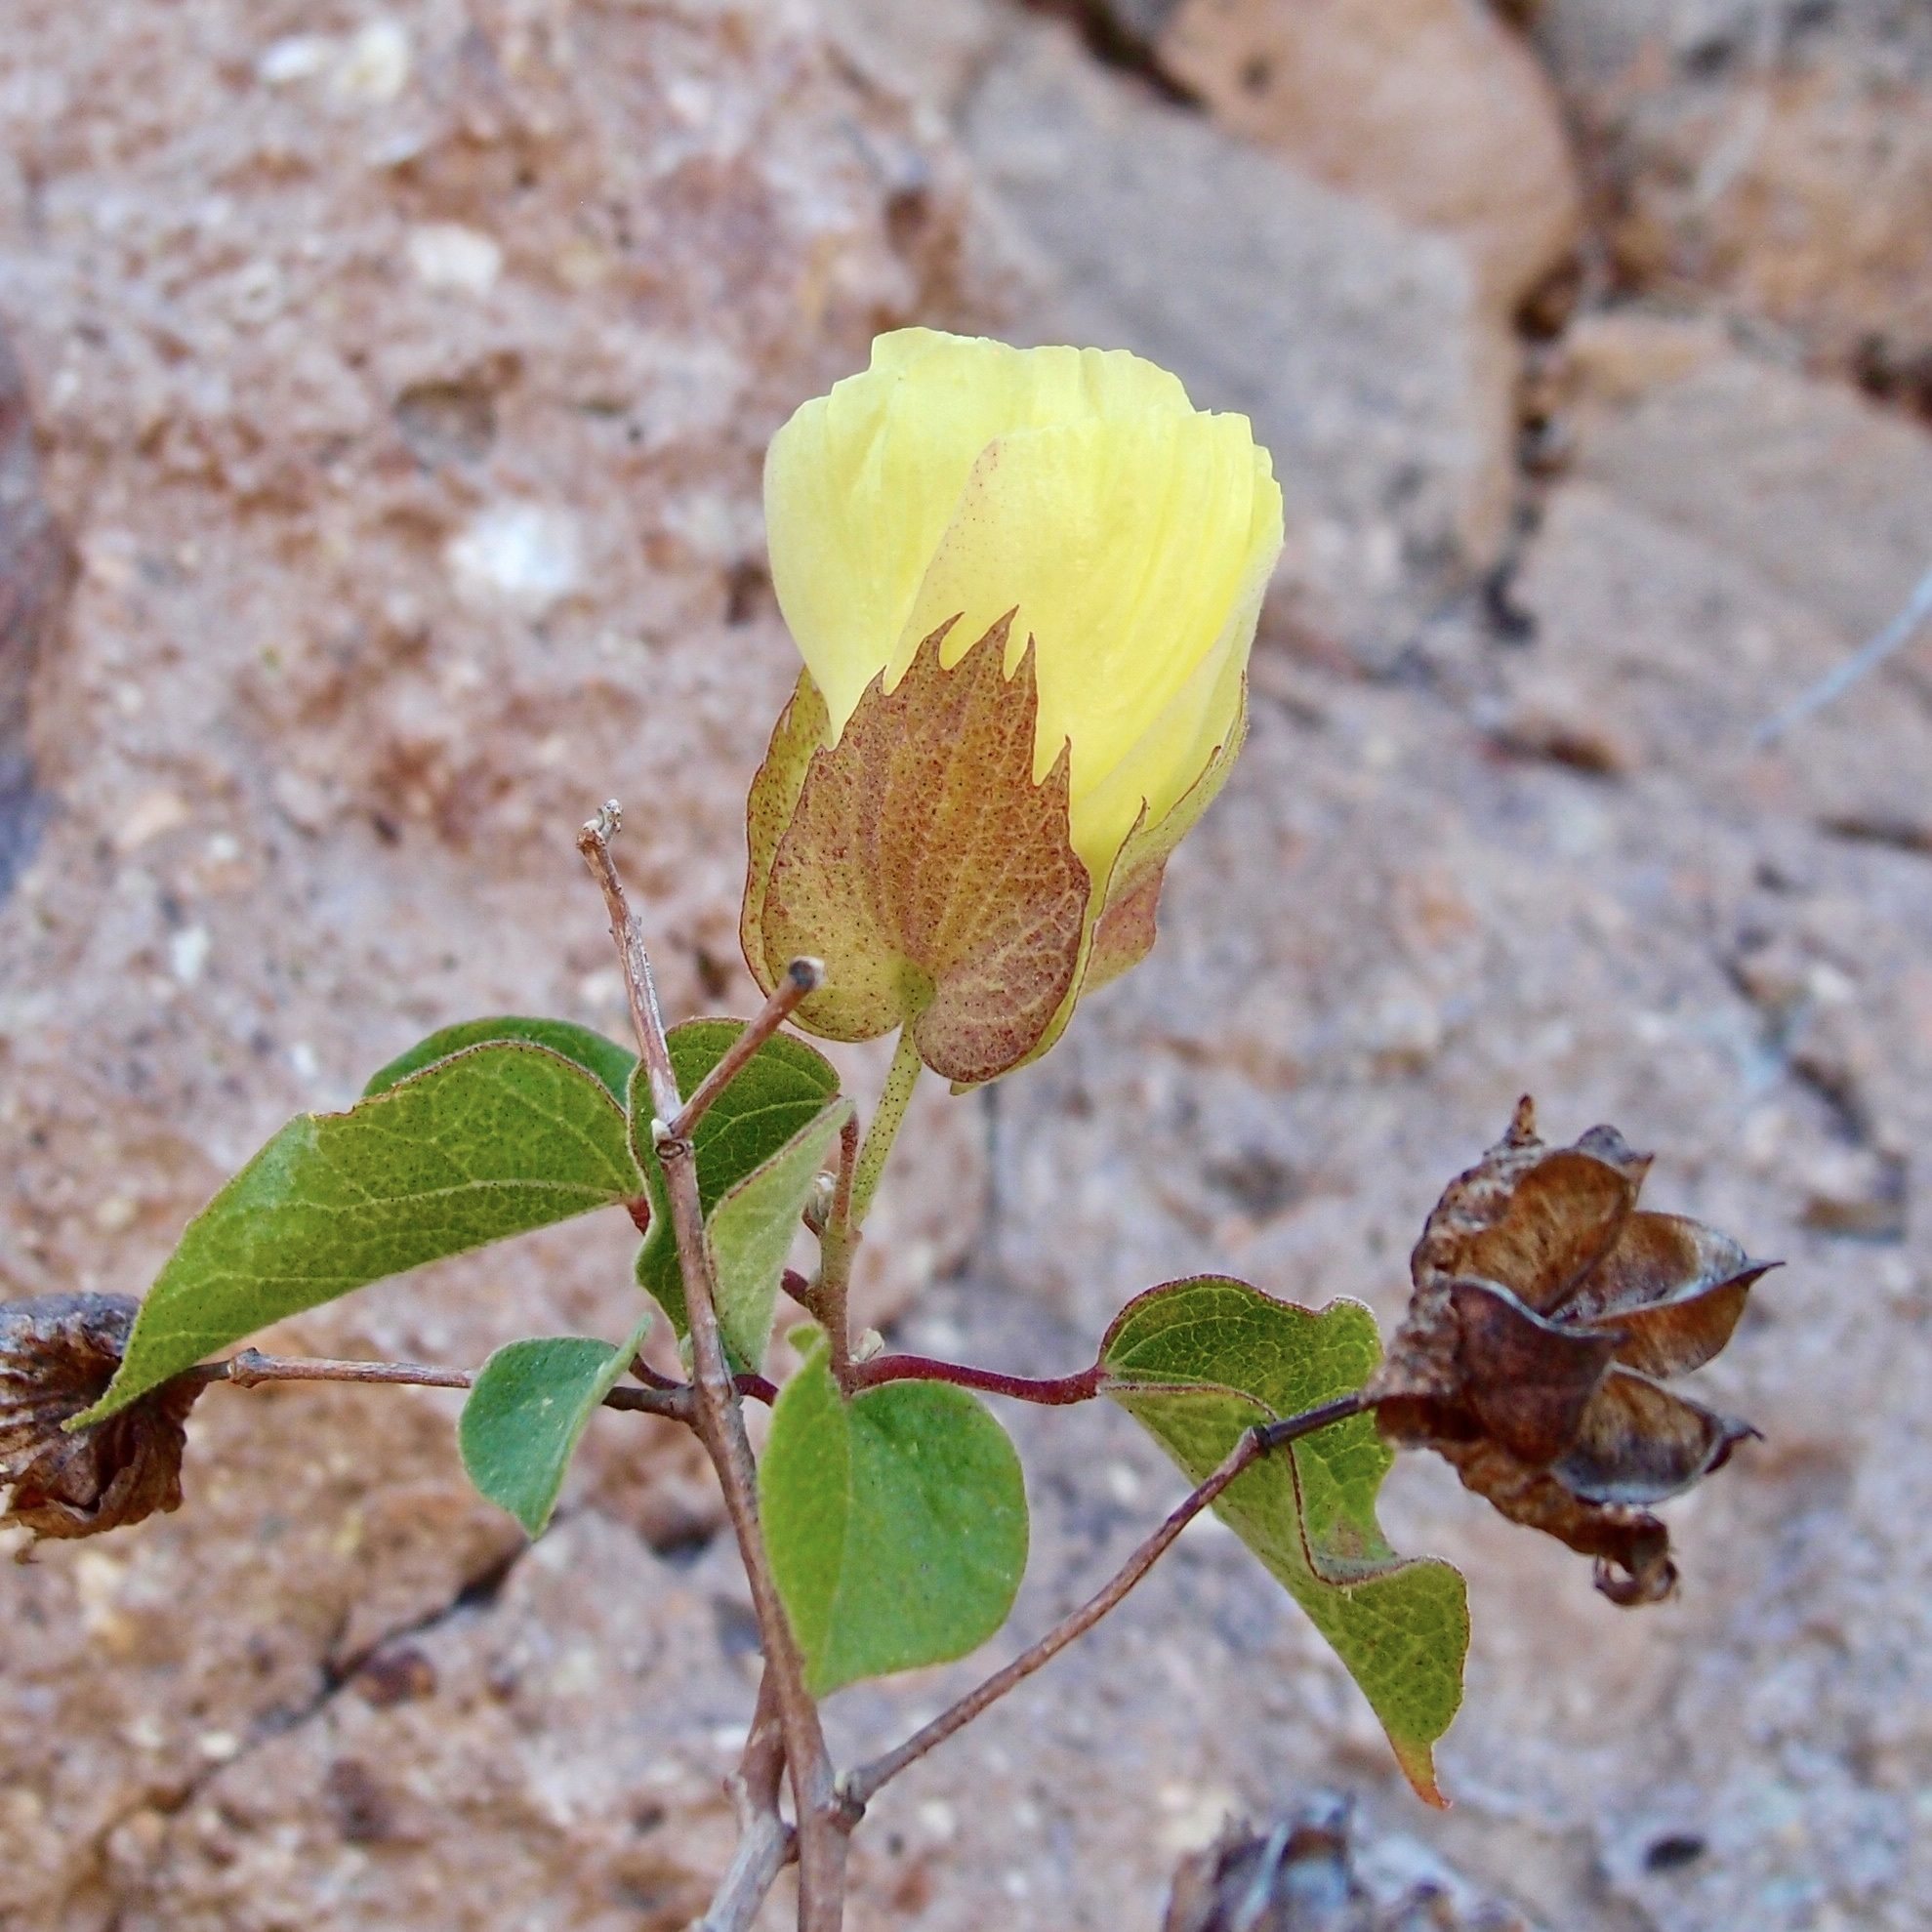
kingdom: Plantae
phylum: Tracheophyta
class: Magnoliopsida
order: Malvales
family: Malvaceae
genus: Gossypium
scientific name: Gossypium klotzschianum
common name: Galapagos cotton
